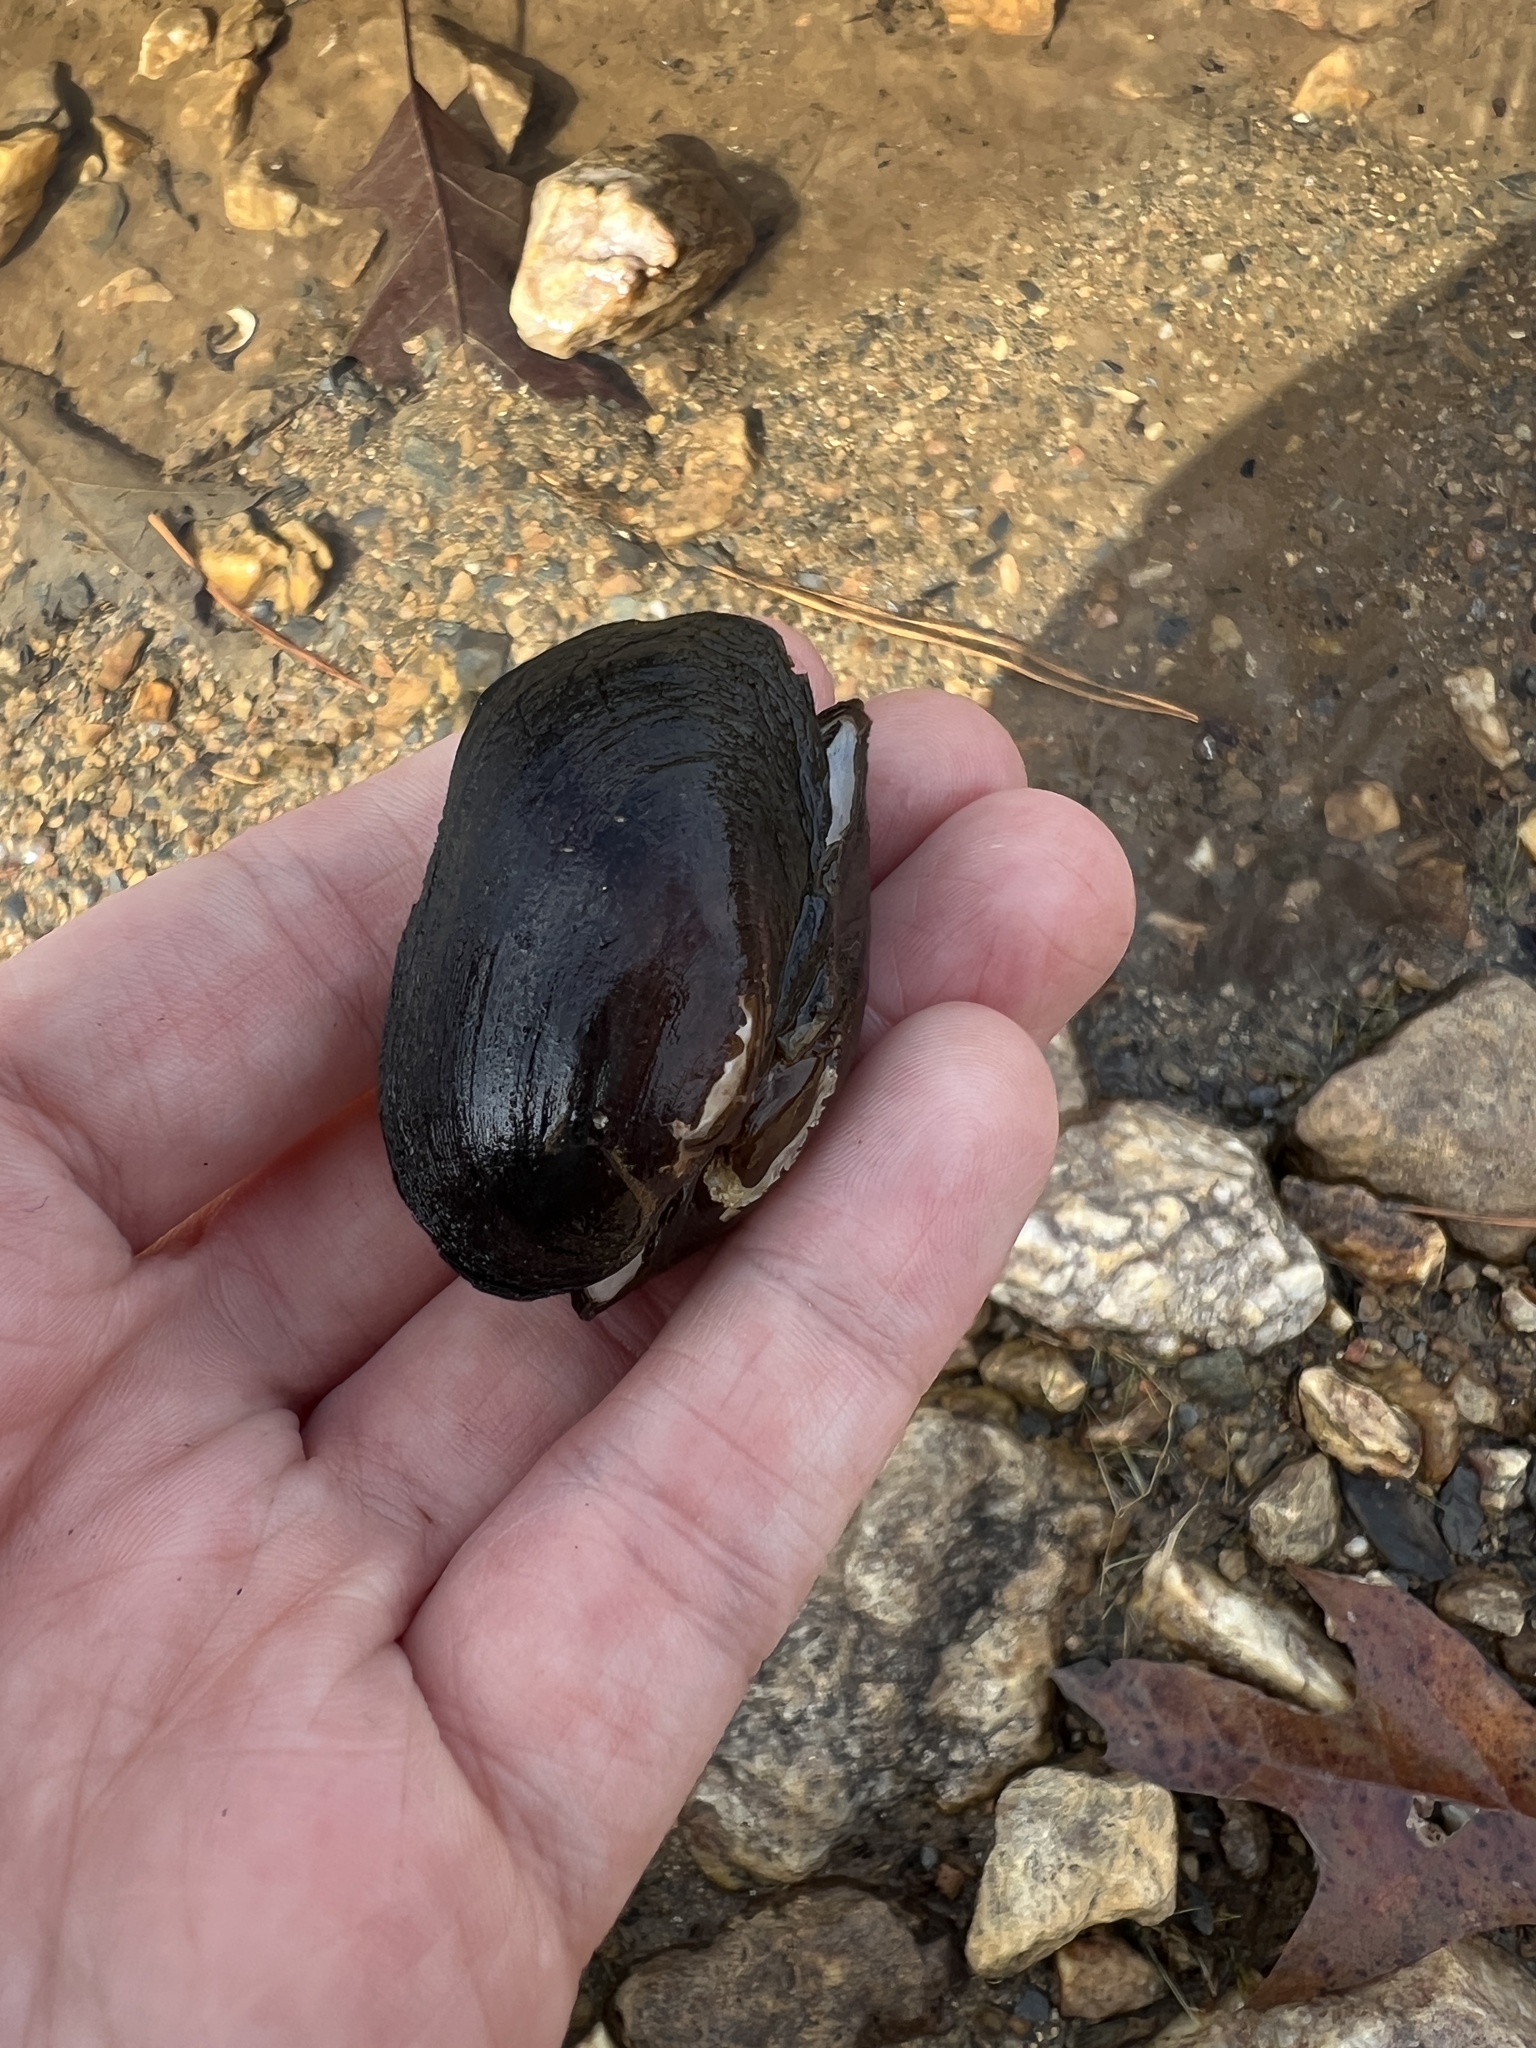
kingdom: Animalia
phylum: Mollusca
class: Bivalvia
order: Unionida
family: Unionidae
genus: Leaunio
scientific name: Leaunio lienosus
